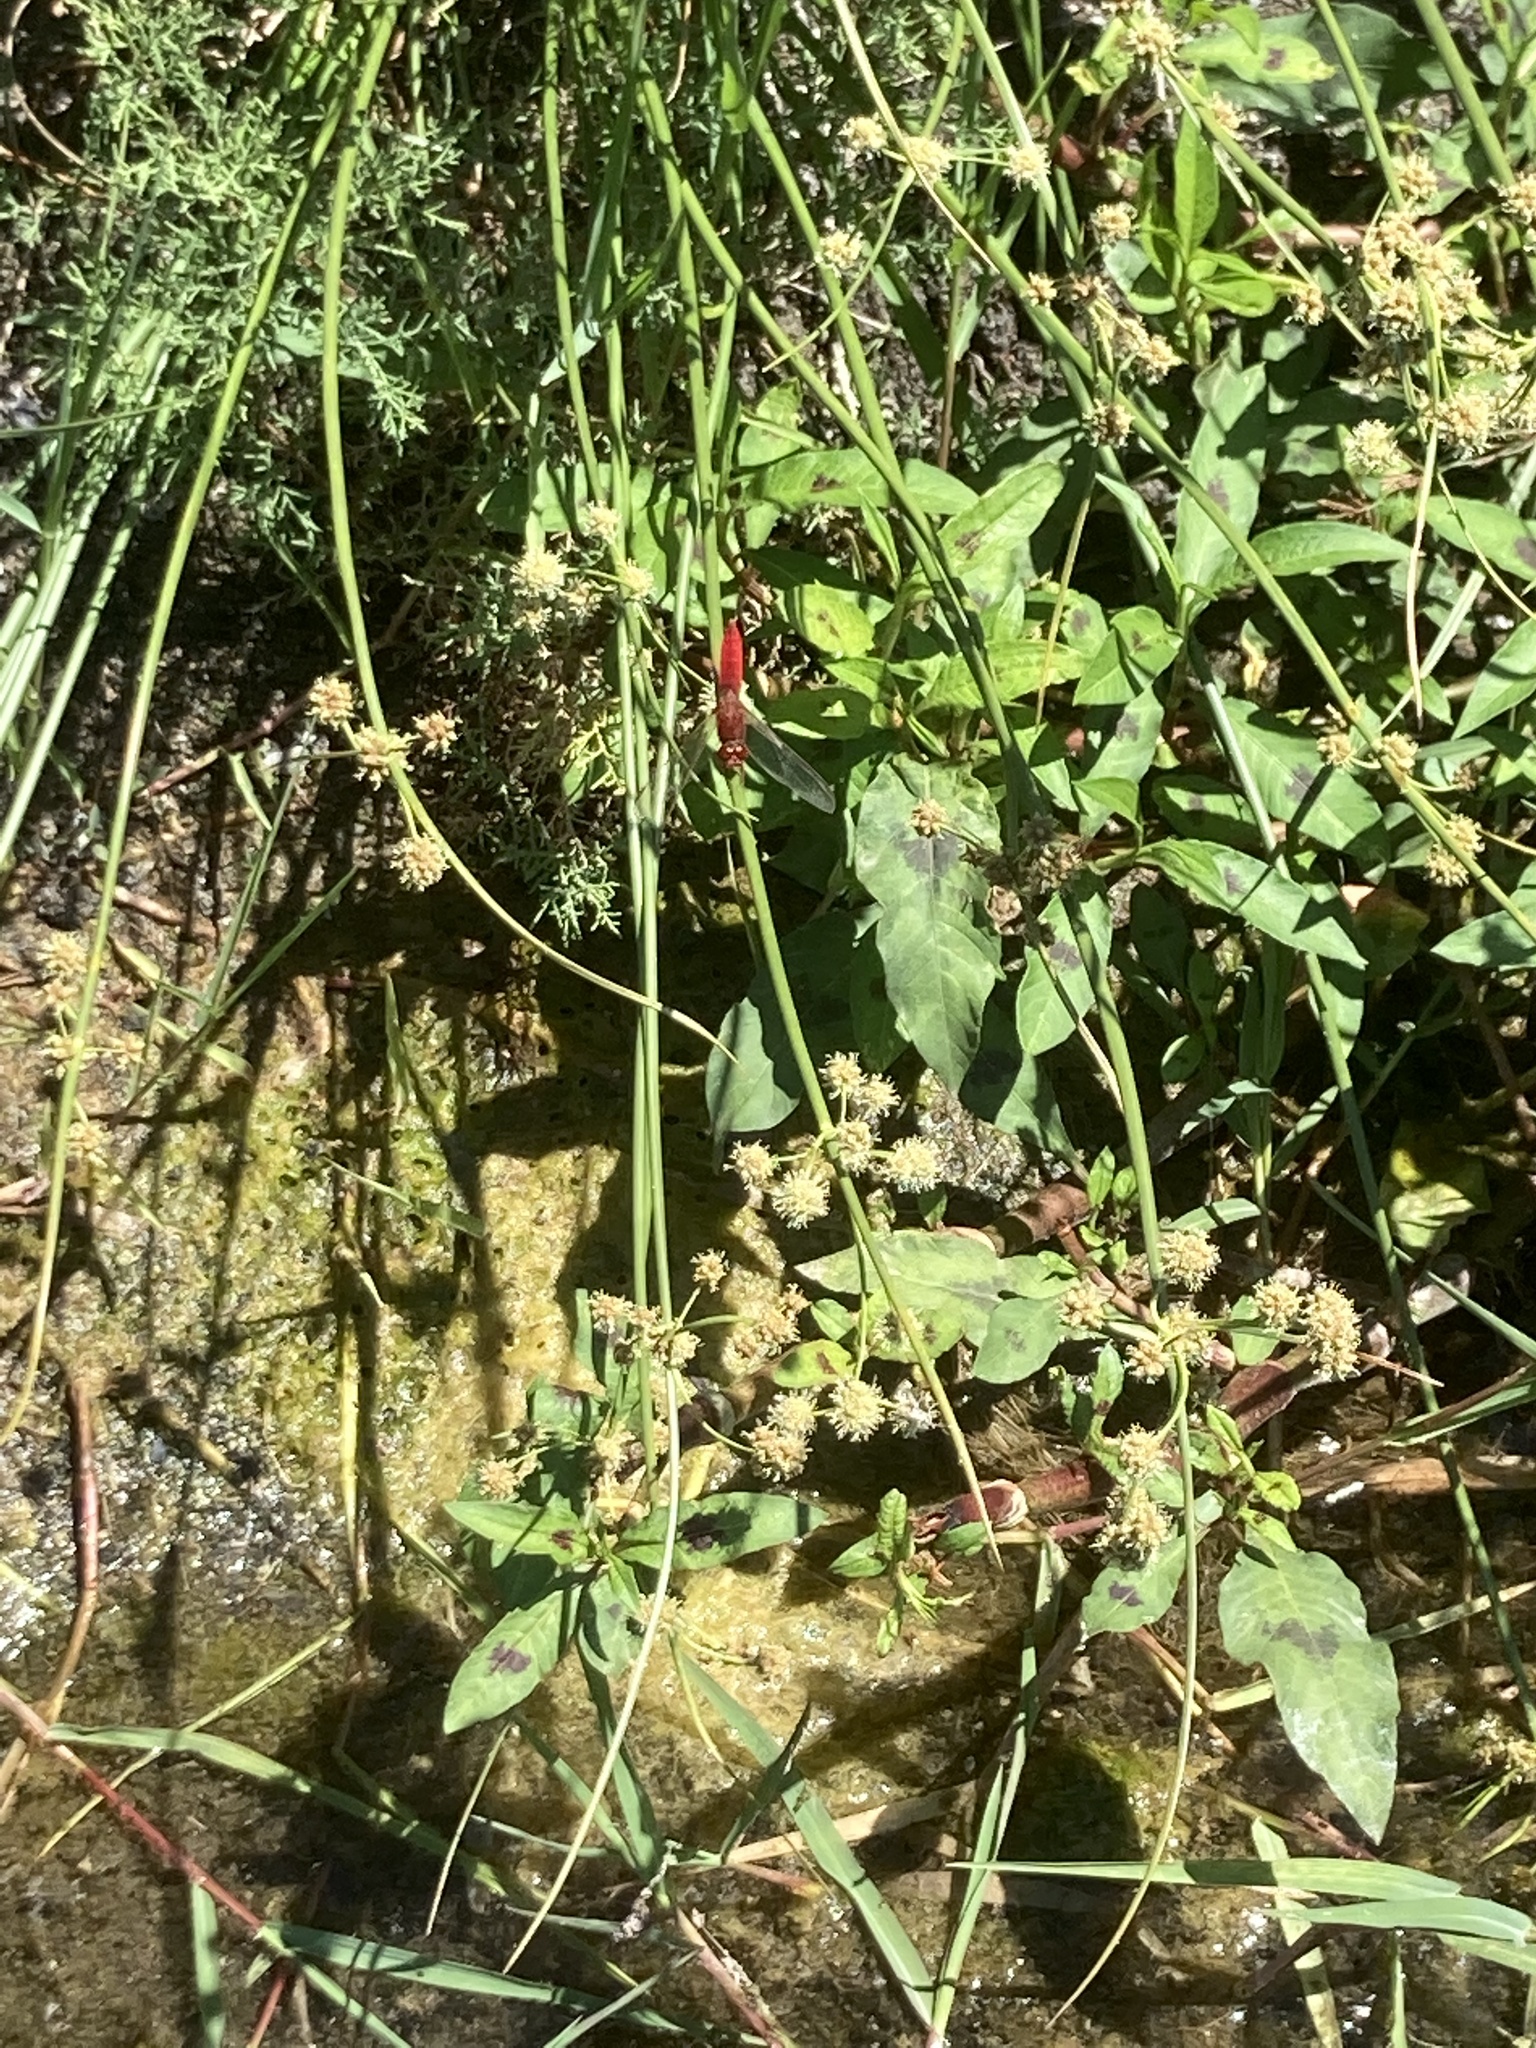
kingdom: Animalia
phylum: Arthropoda
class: Insecta
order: Odonata
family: Libellulidae
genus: Crocothemis
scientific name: Crocothemis erythraea
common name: Scarlet dragonfly
